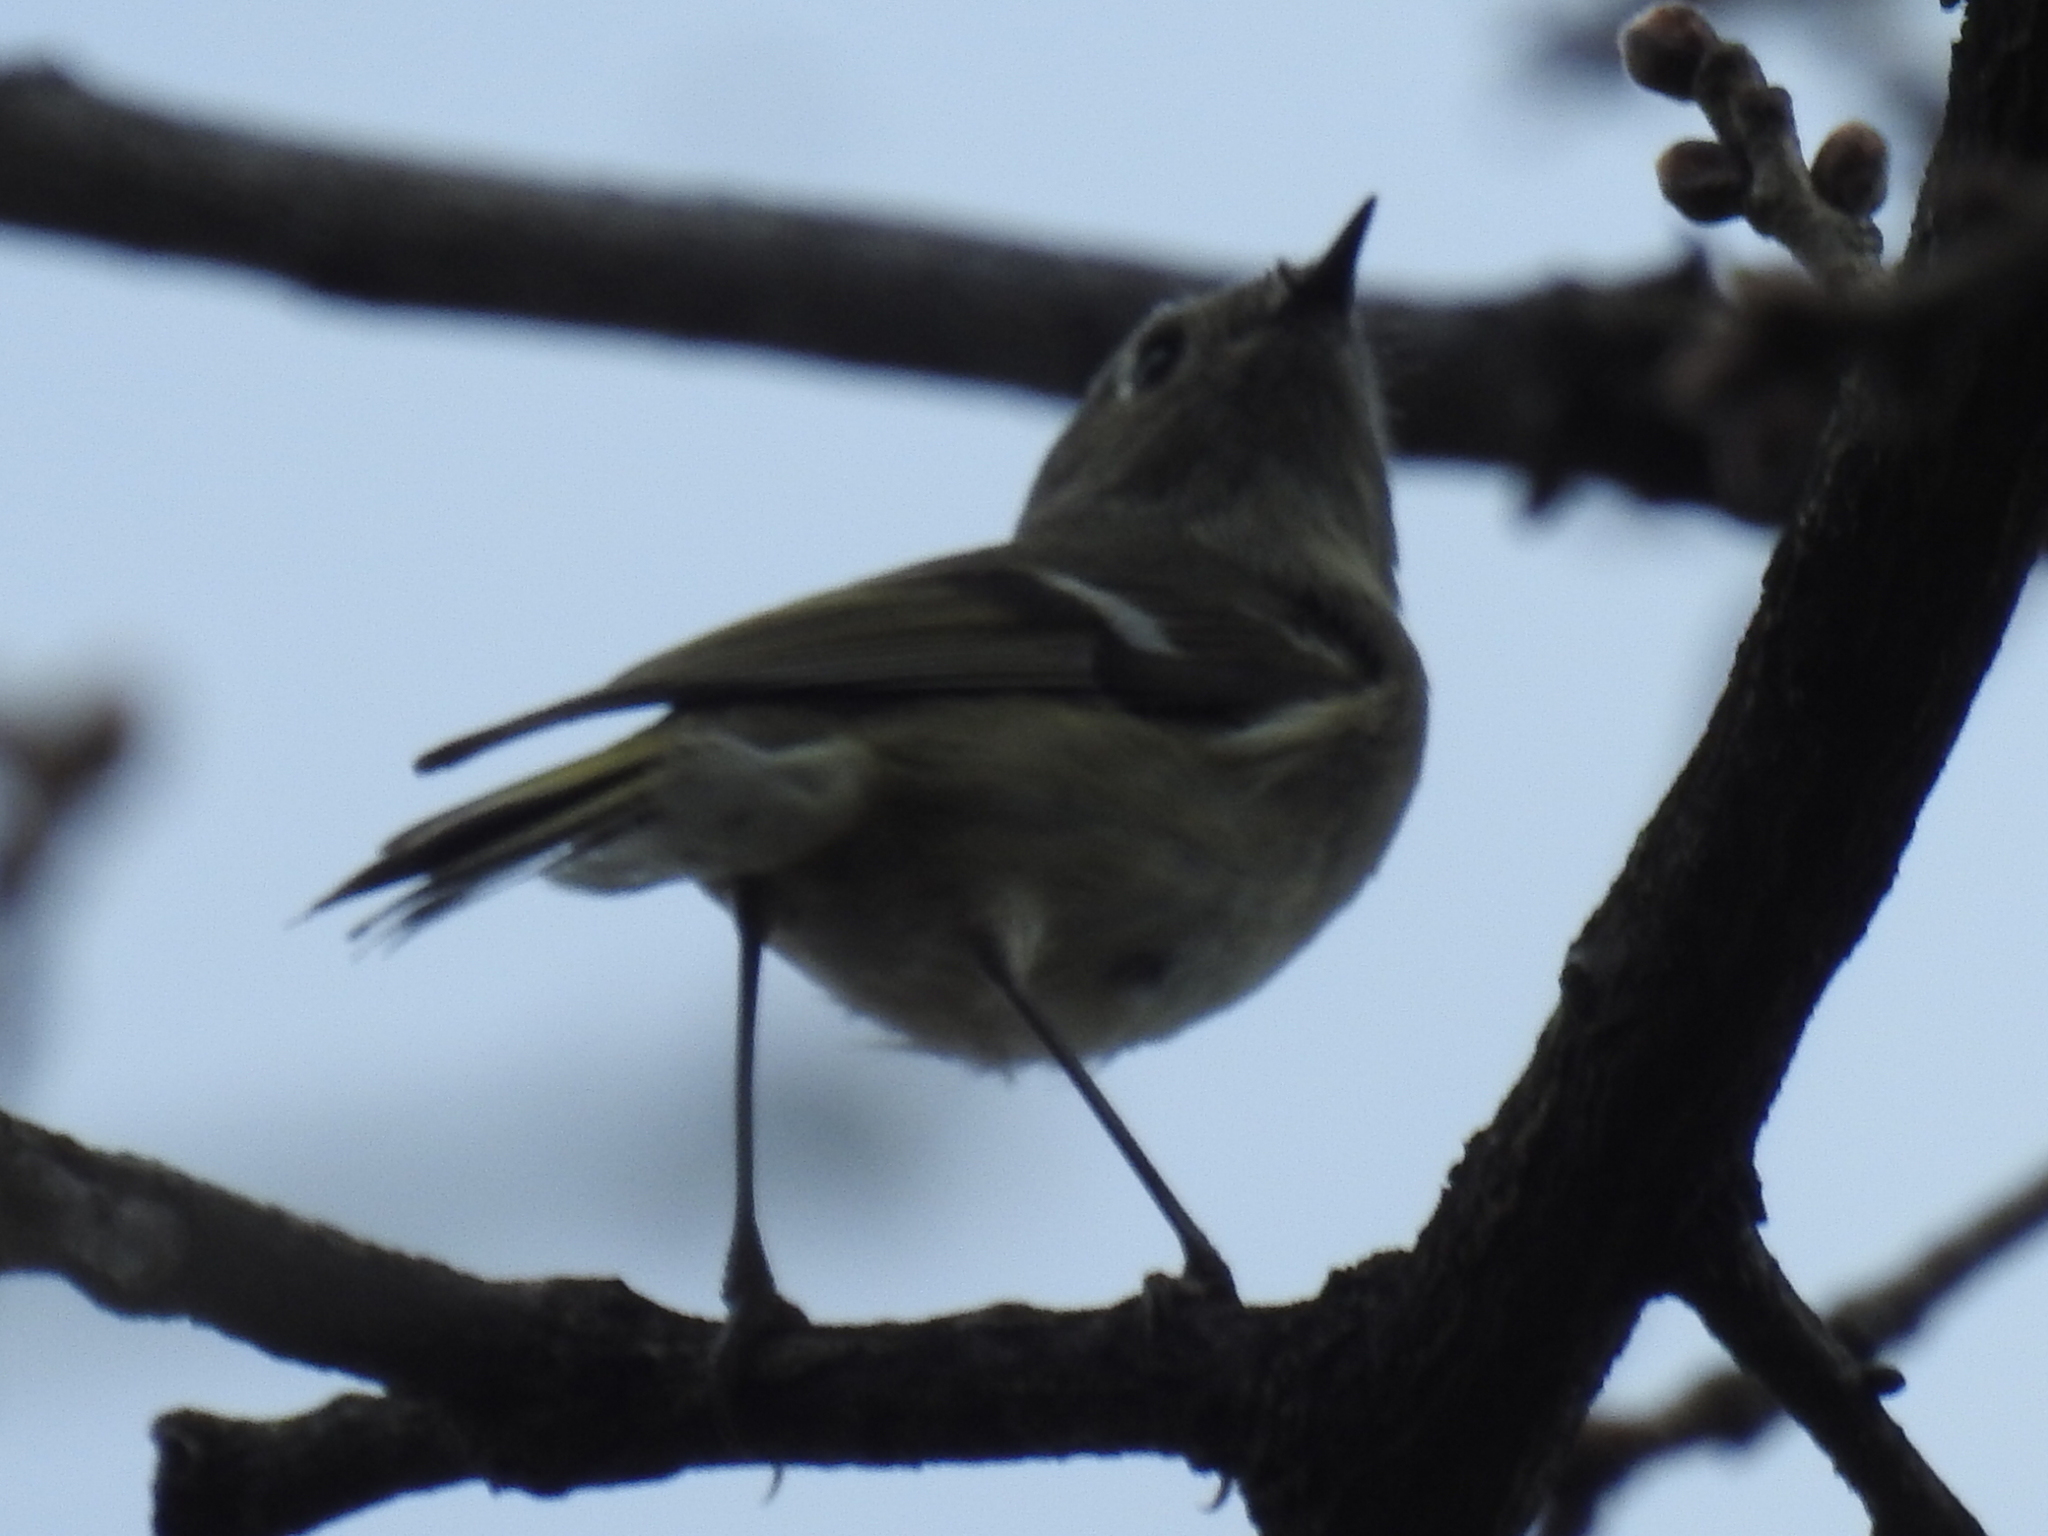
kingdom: Animalia
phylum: Chordata
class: Aves
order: Passeriformes
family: Regulidae
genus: Regulus
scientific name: Regulus calendula
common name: Ruby-crowned kinglet
